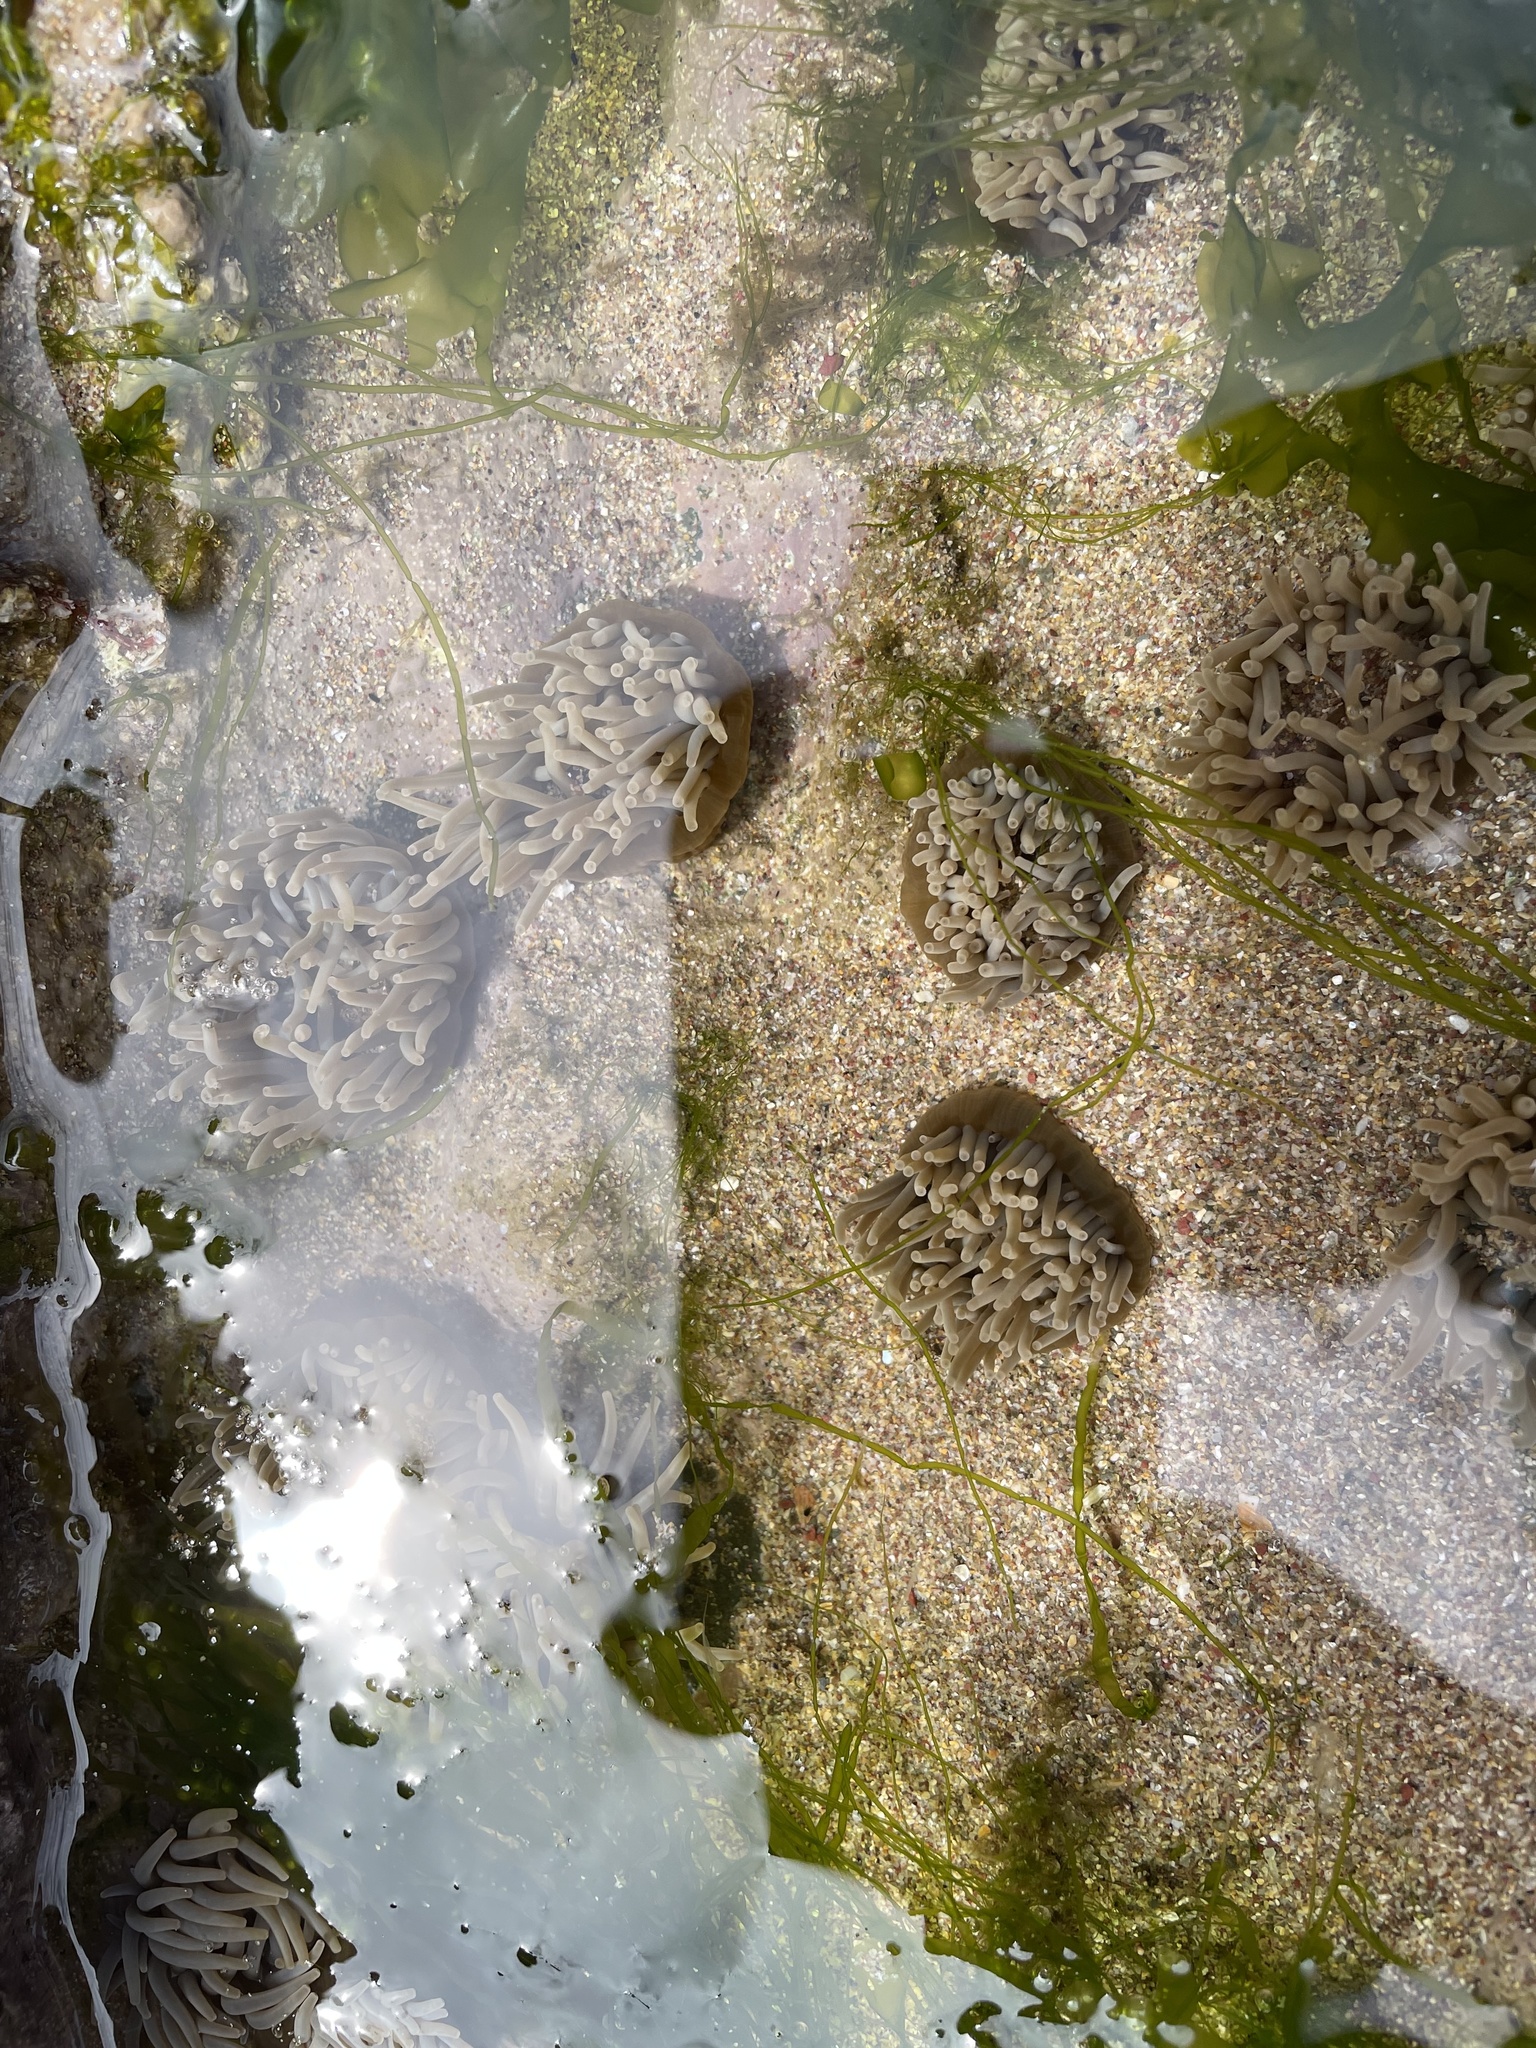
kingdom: Animalia
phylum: Cnidaria
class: Anthozoa
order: Actiniaria
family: Actiniidae
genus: Anemonia
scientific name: Anemonia viridis
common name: Snakelocks anemone
